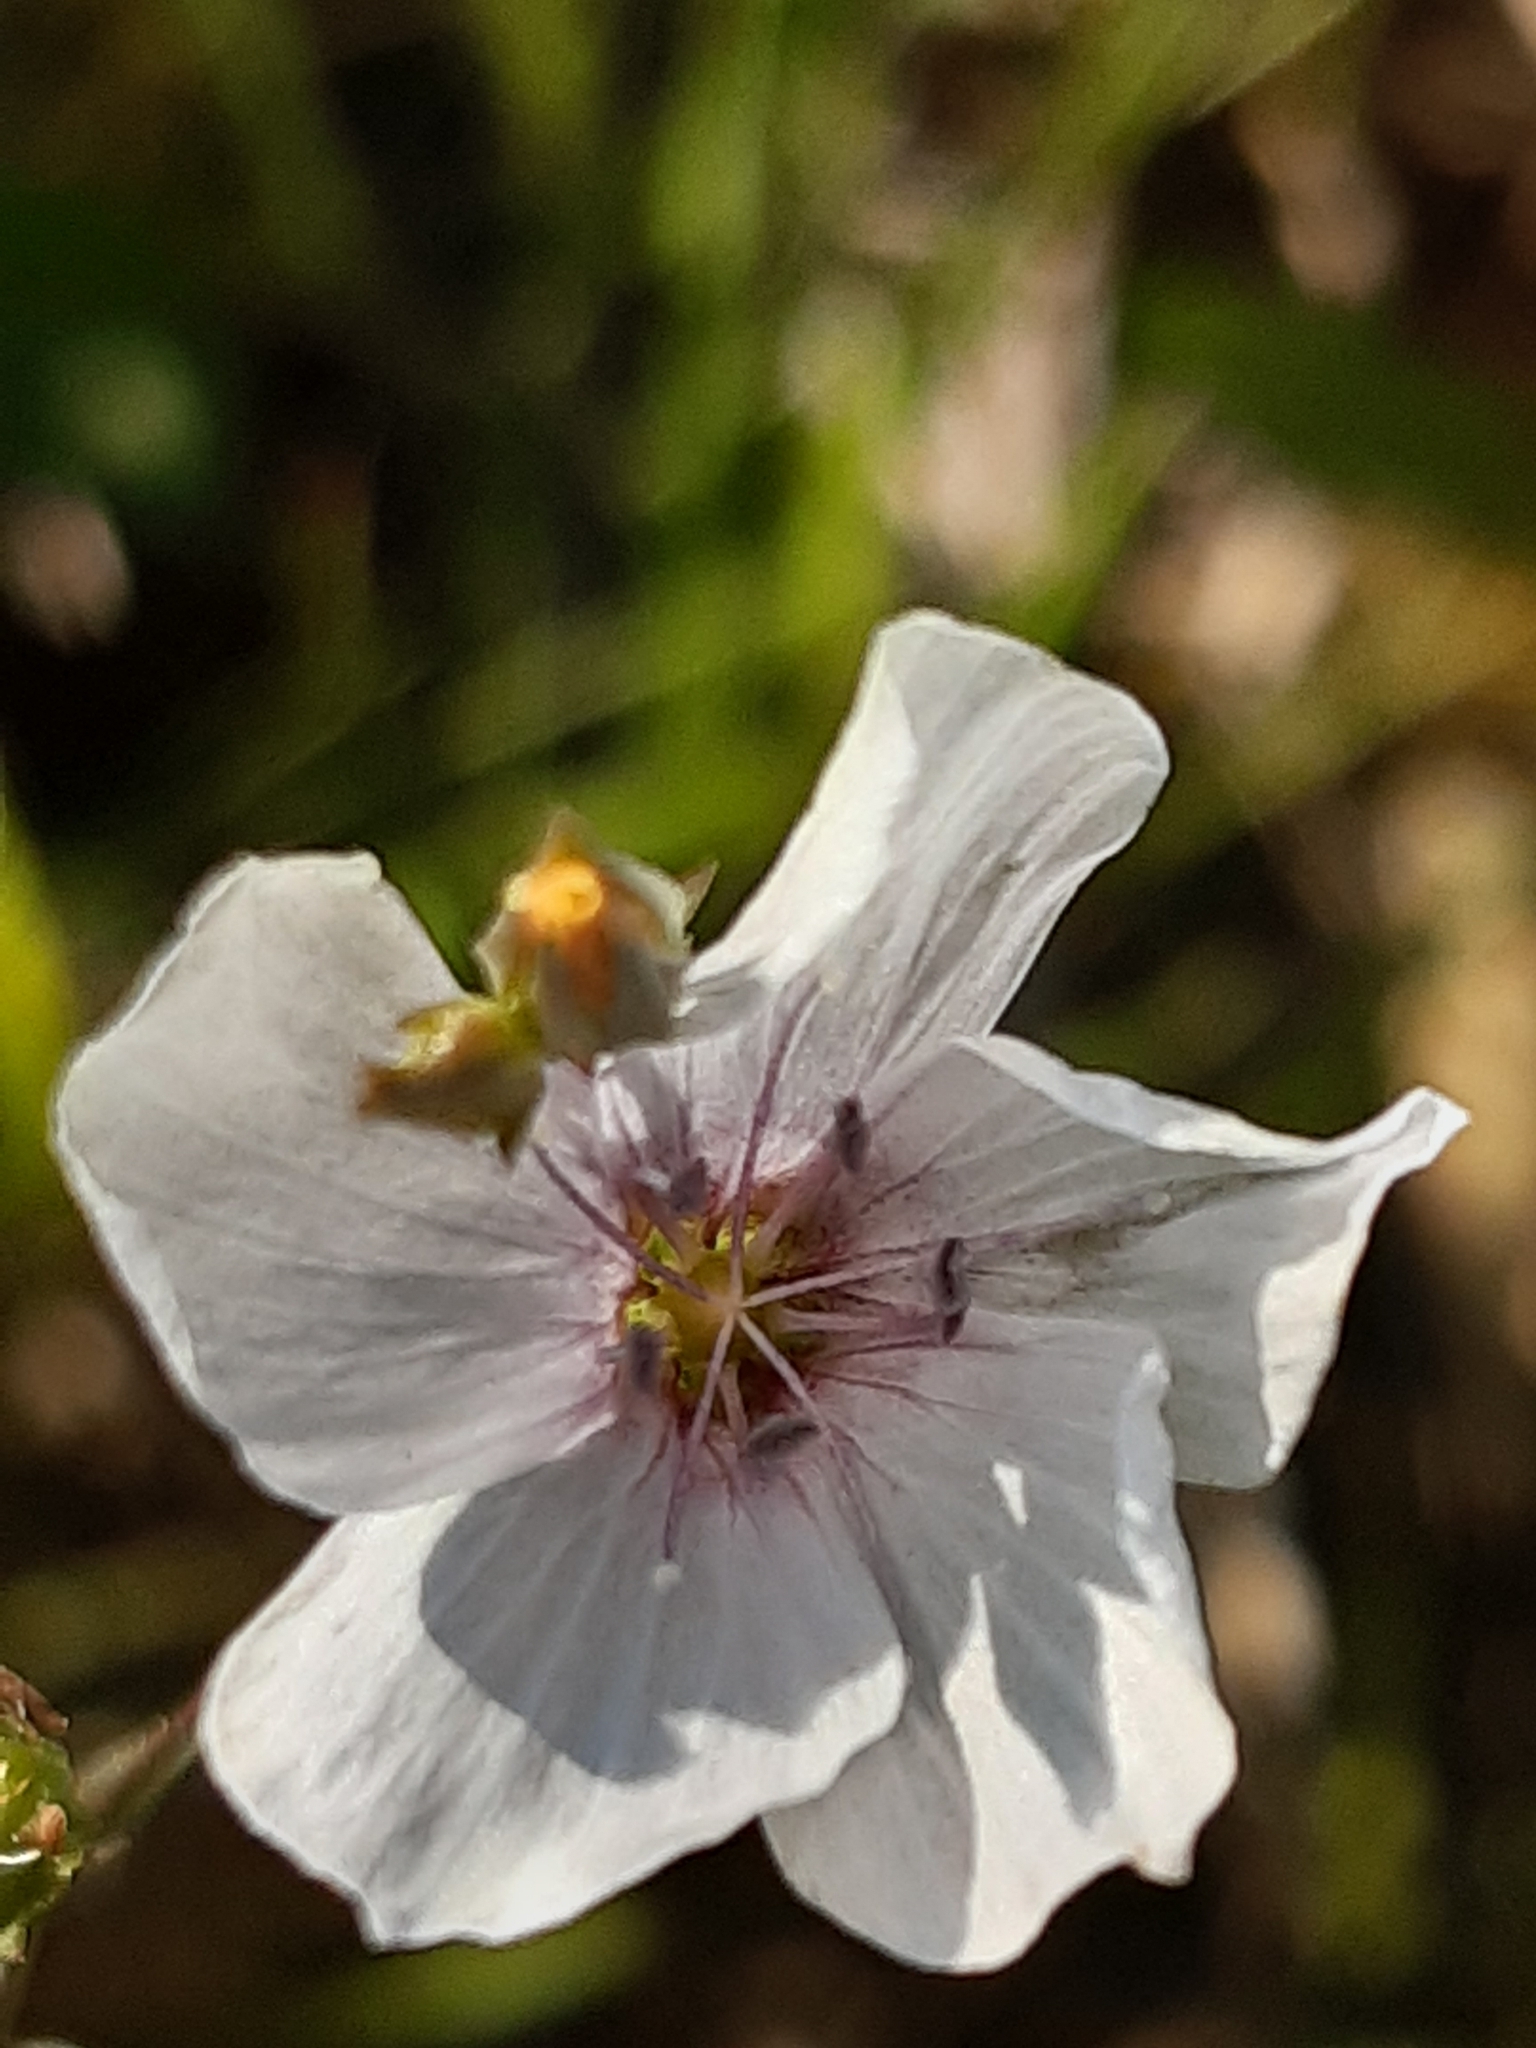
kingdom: Plantae
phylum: Tracheophyta
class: Magnoliopsida
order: Malpighiales
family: Linaceae
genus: Linum
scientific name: Linum tenuifolium
